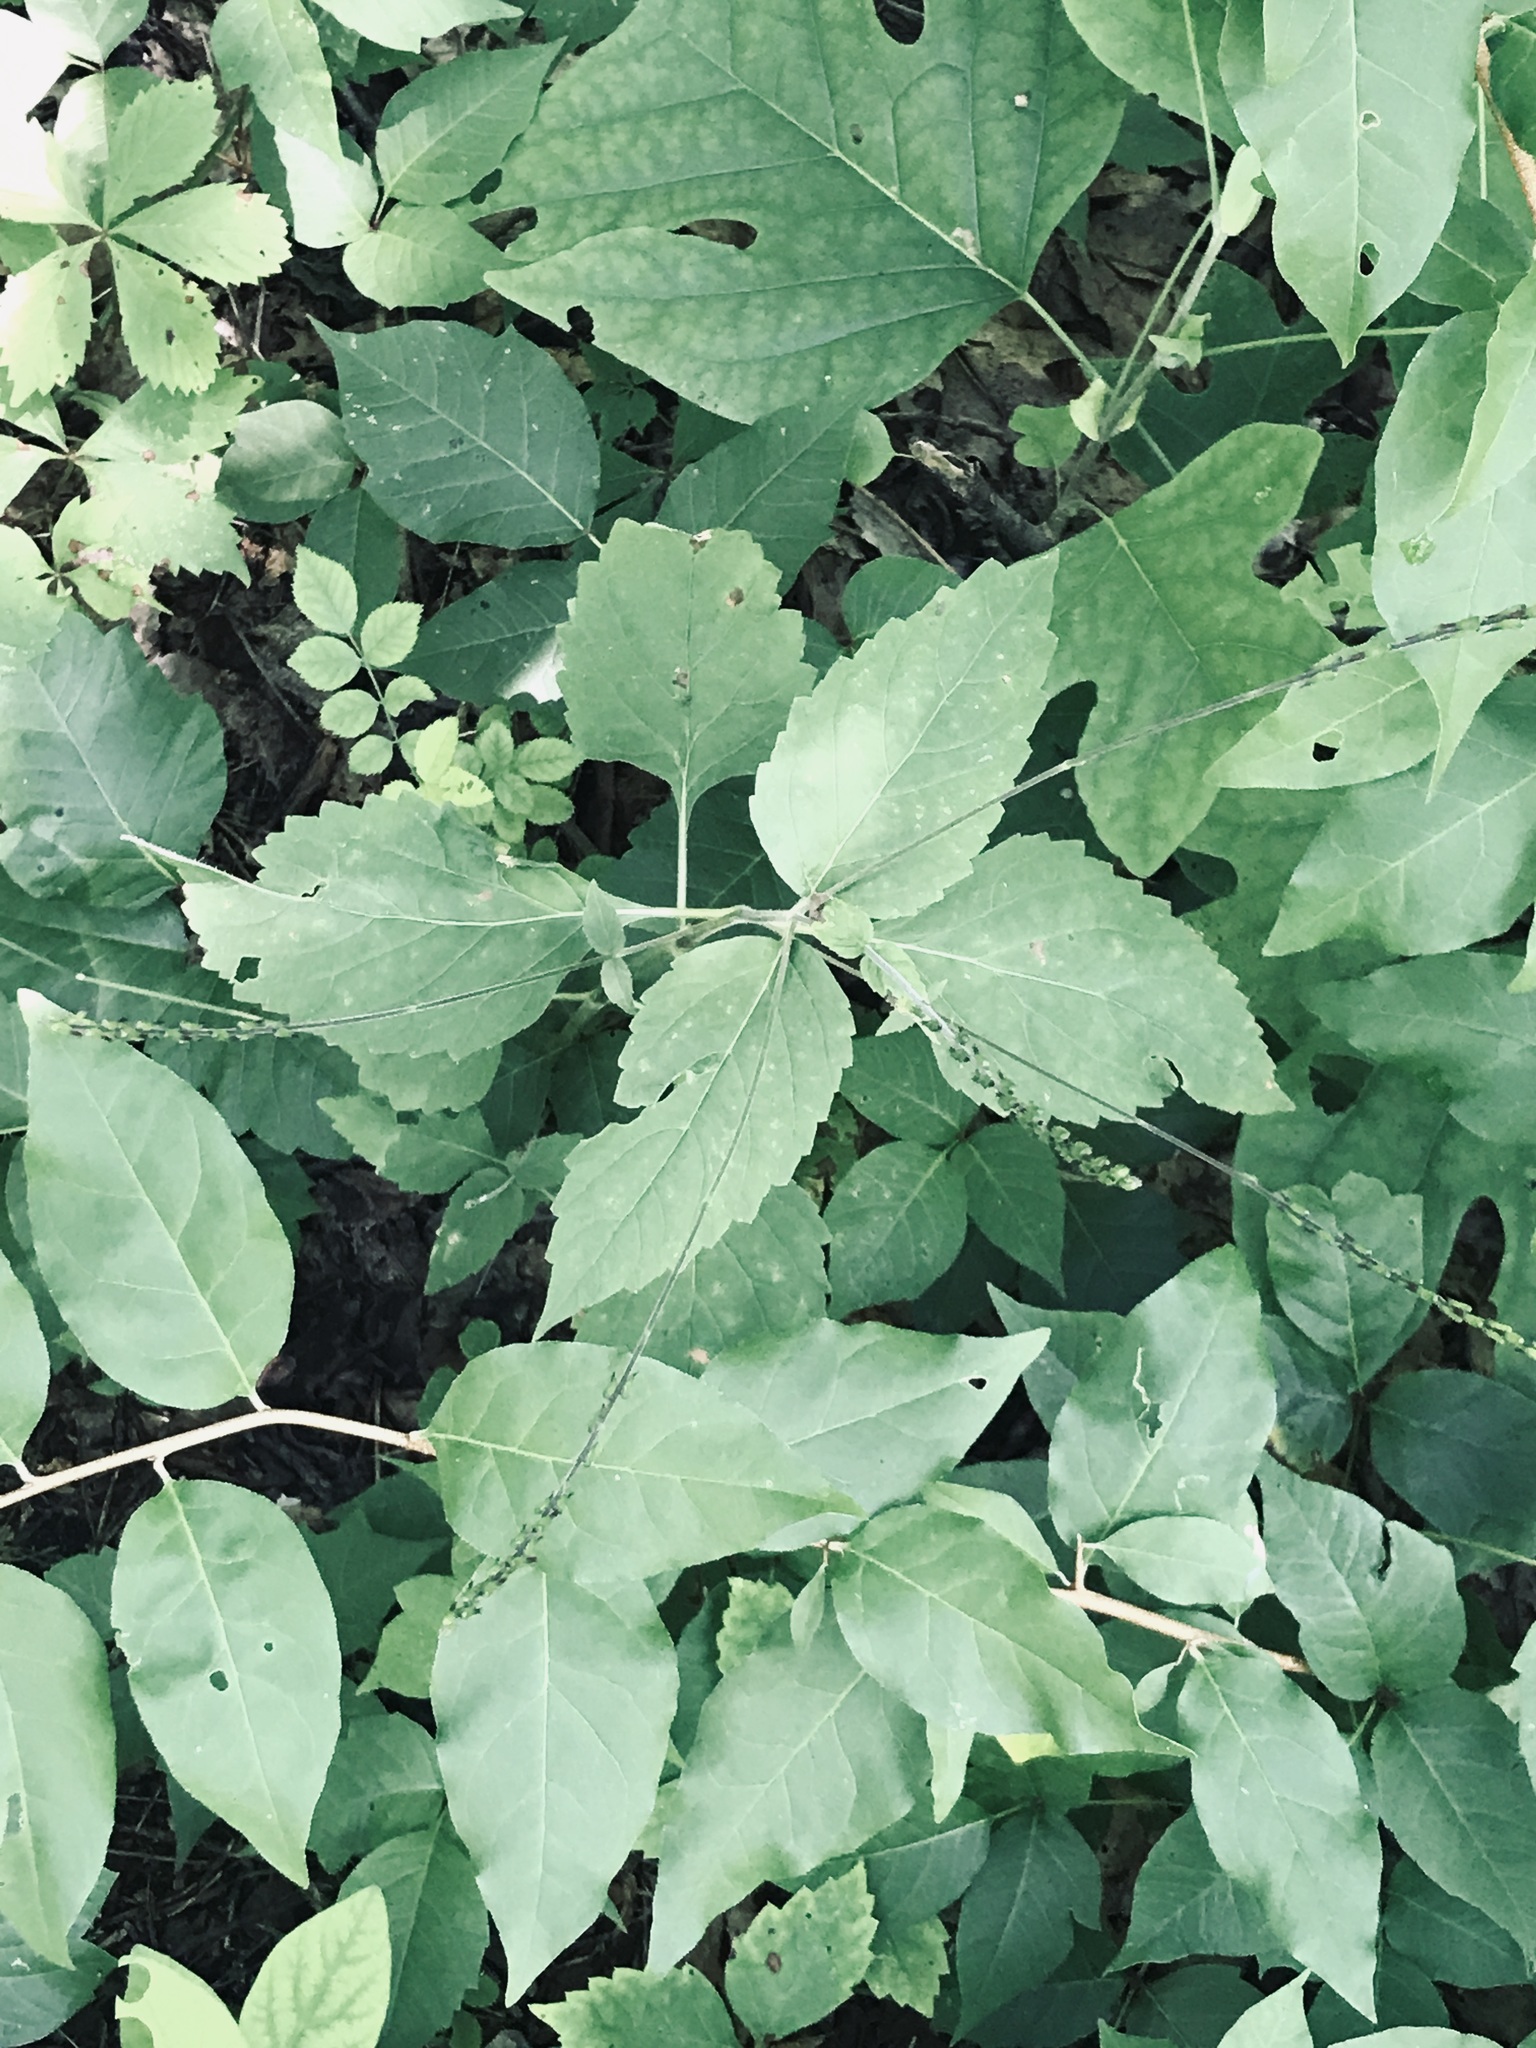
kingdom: Plantae
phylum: Tracheophyta
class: Magnoliopsida
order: Lamiales
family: Phrymaceae
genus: Phryma
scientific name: Phryma leptostachya
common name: American lopseed
